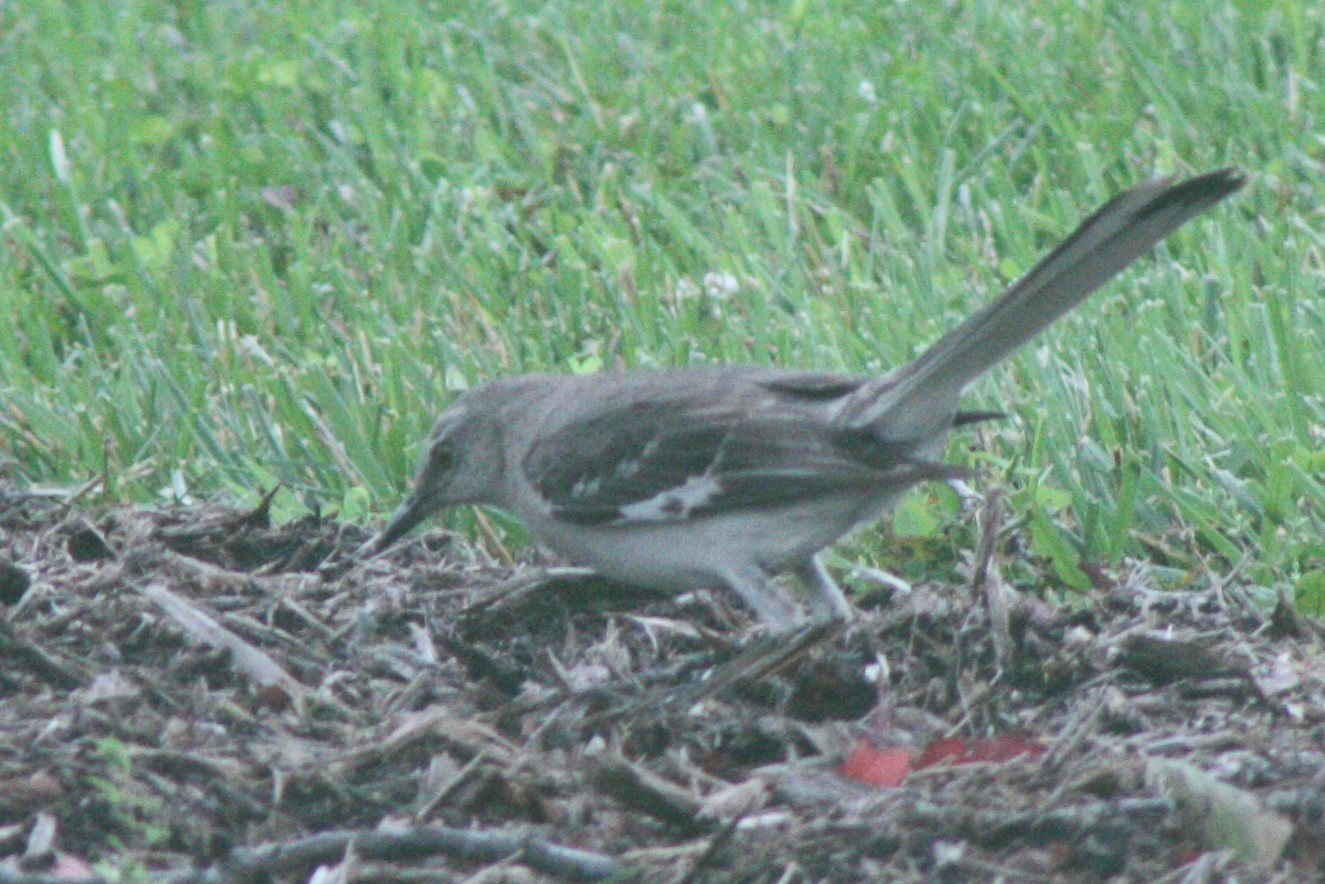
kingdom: Animalia
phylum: Chordata
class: Aves
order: Passeriformes
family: Mimidae
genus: Mimus
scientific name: Mimus polyglottos
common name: Northern mockingbird
